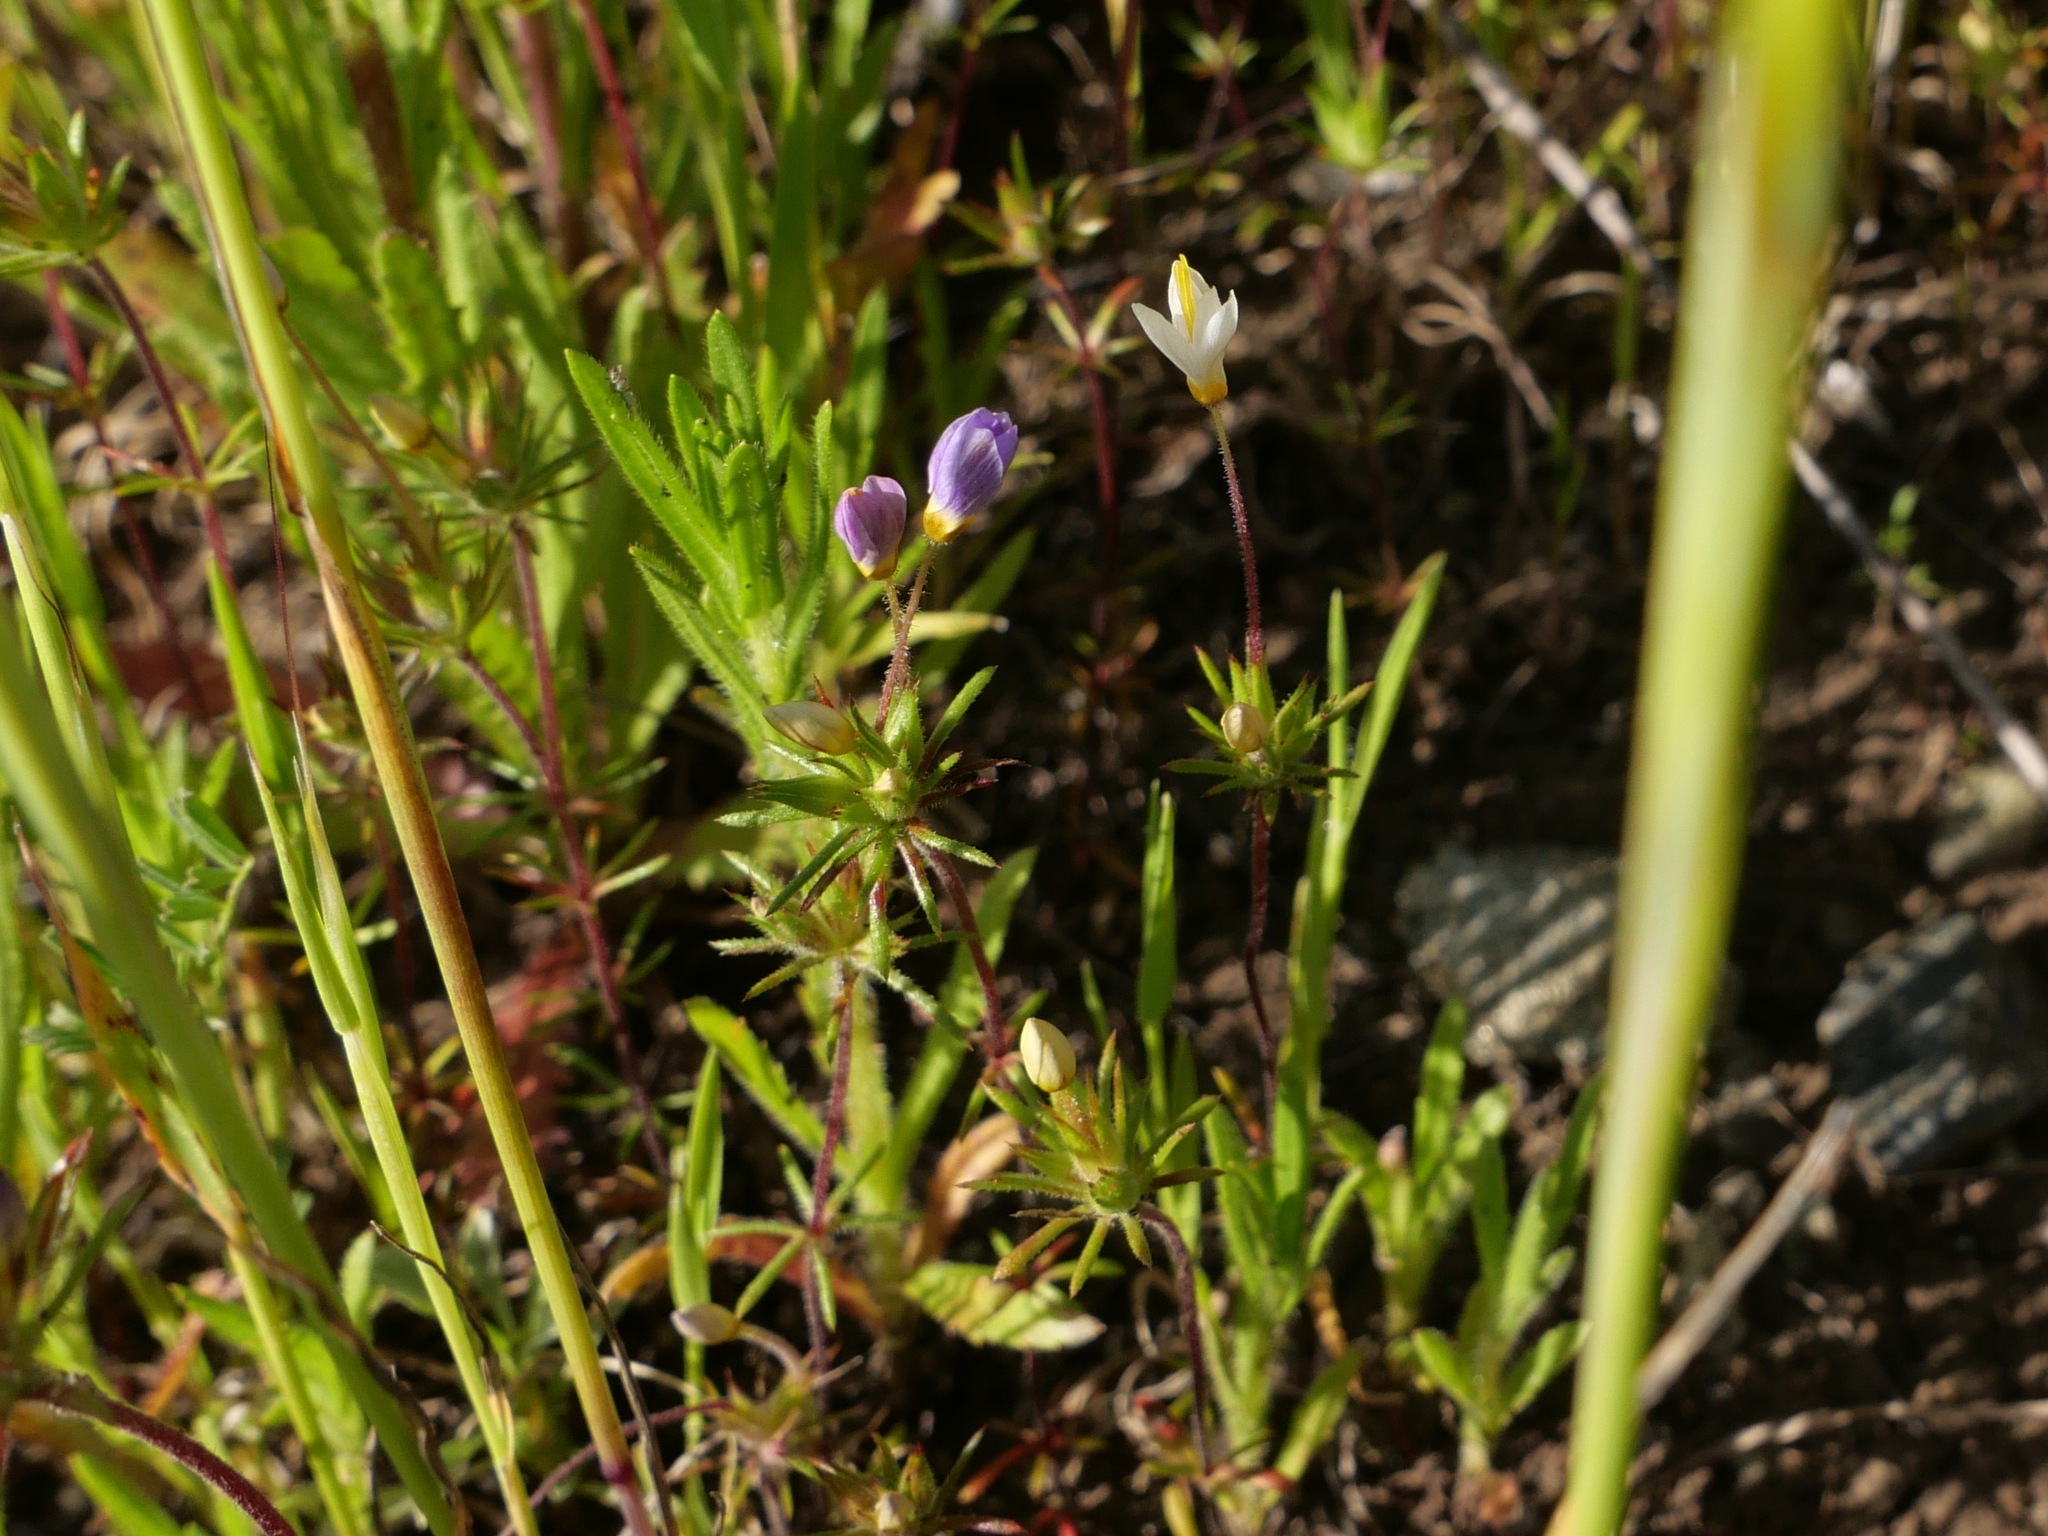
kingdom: Plantae
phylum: Tracheophyta
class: Magnoliopsida
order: Ericales
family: Polemoniaceae
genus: Leptosiphon
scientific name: Leptosiphon parviflorus
